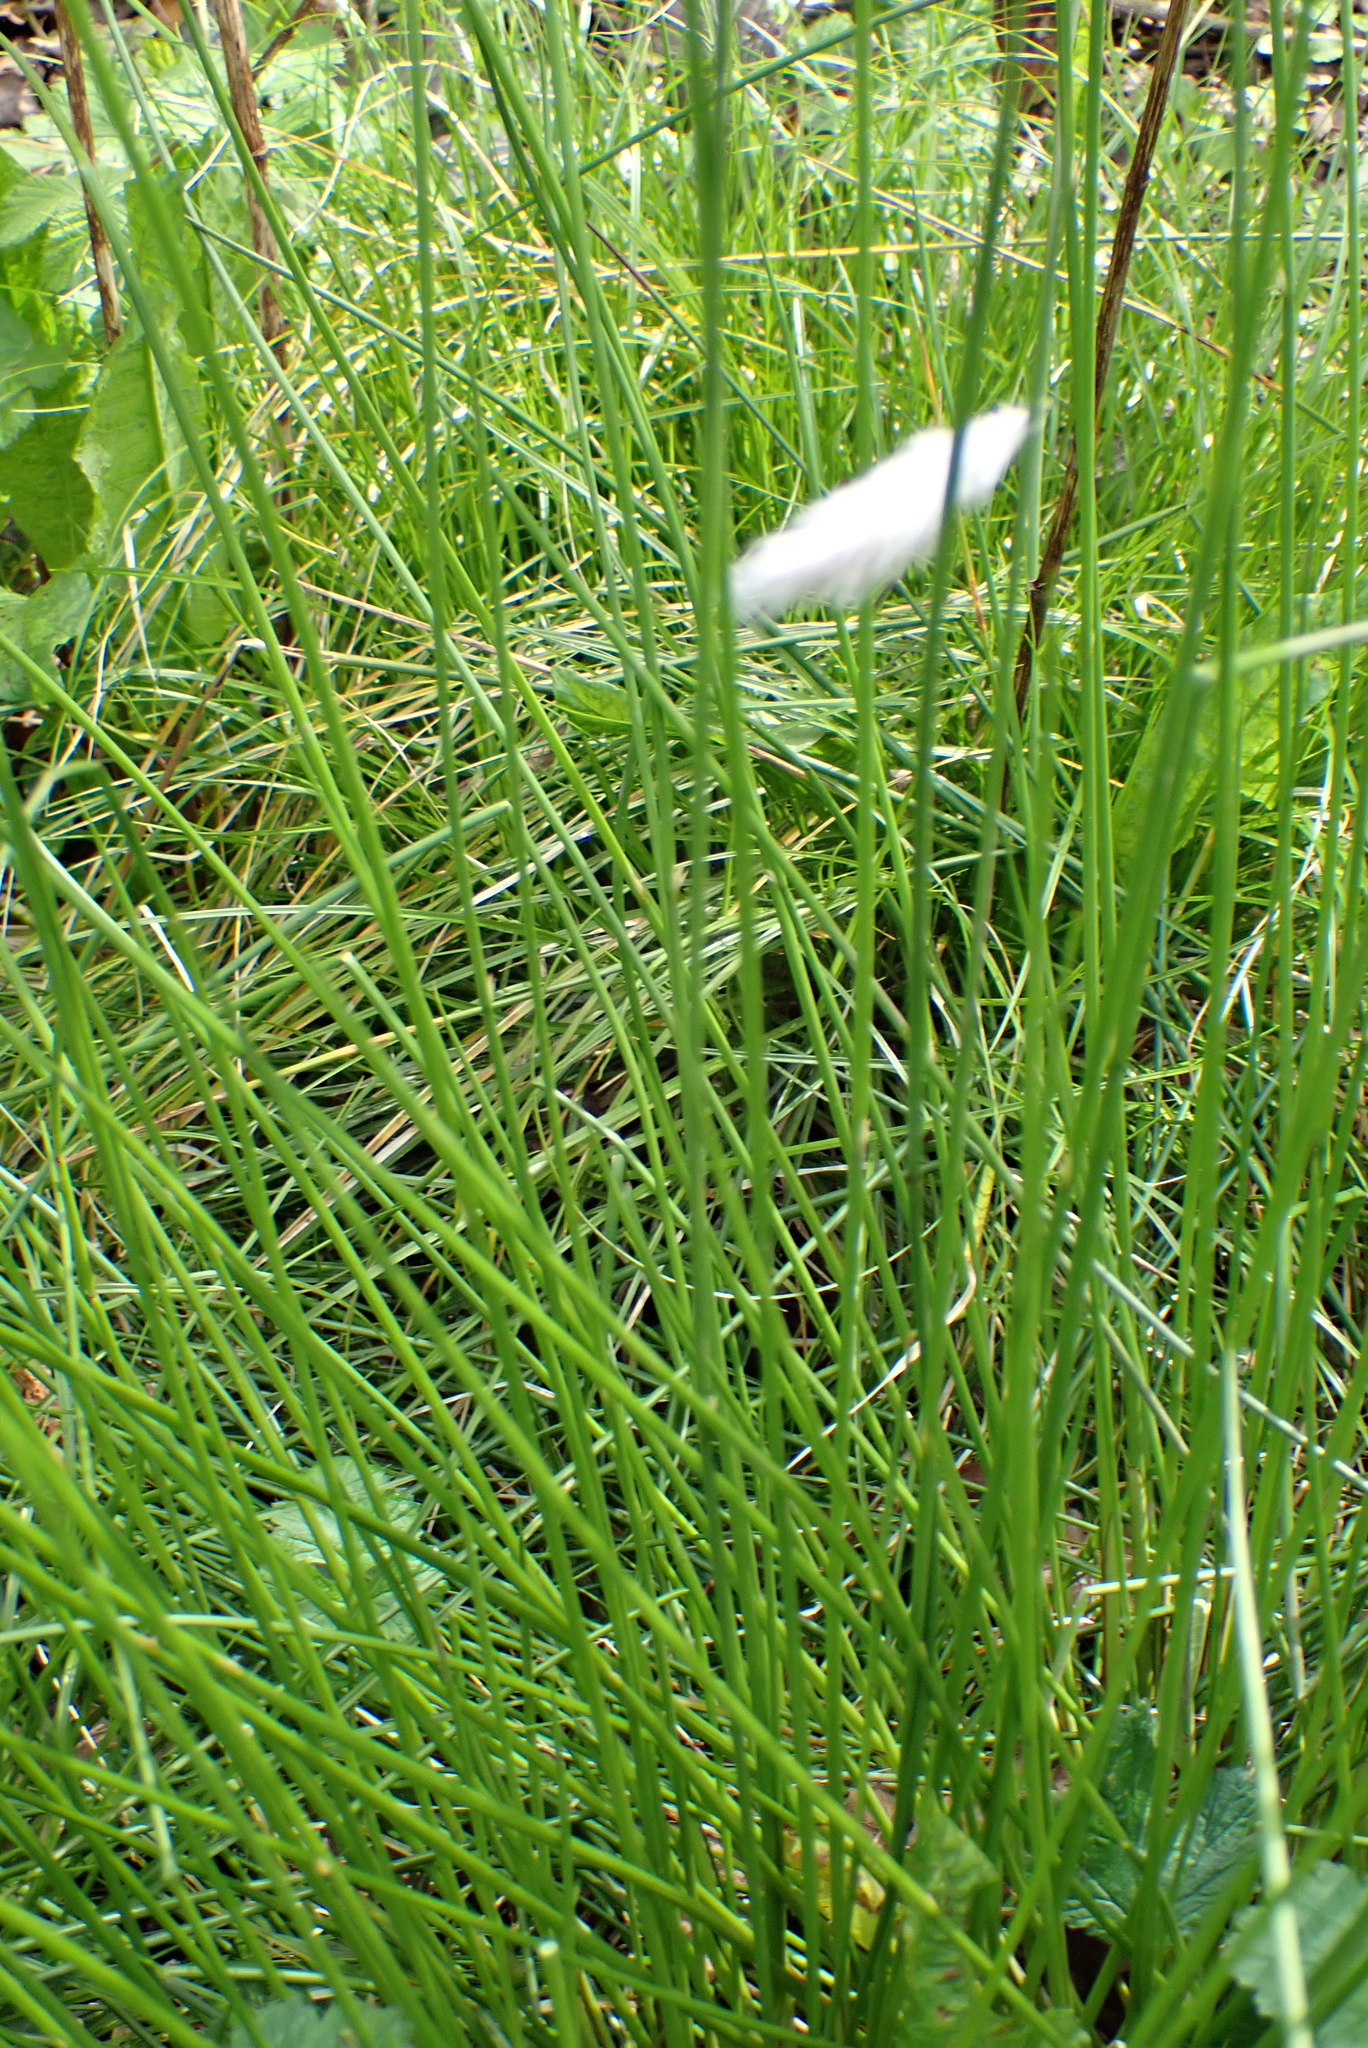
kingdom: Plantae
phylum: Tracheophyta
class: Liliopsida
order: Poales
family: Juncaceae
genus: Juncus
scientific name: Juncus effusus
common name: Soft rush
